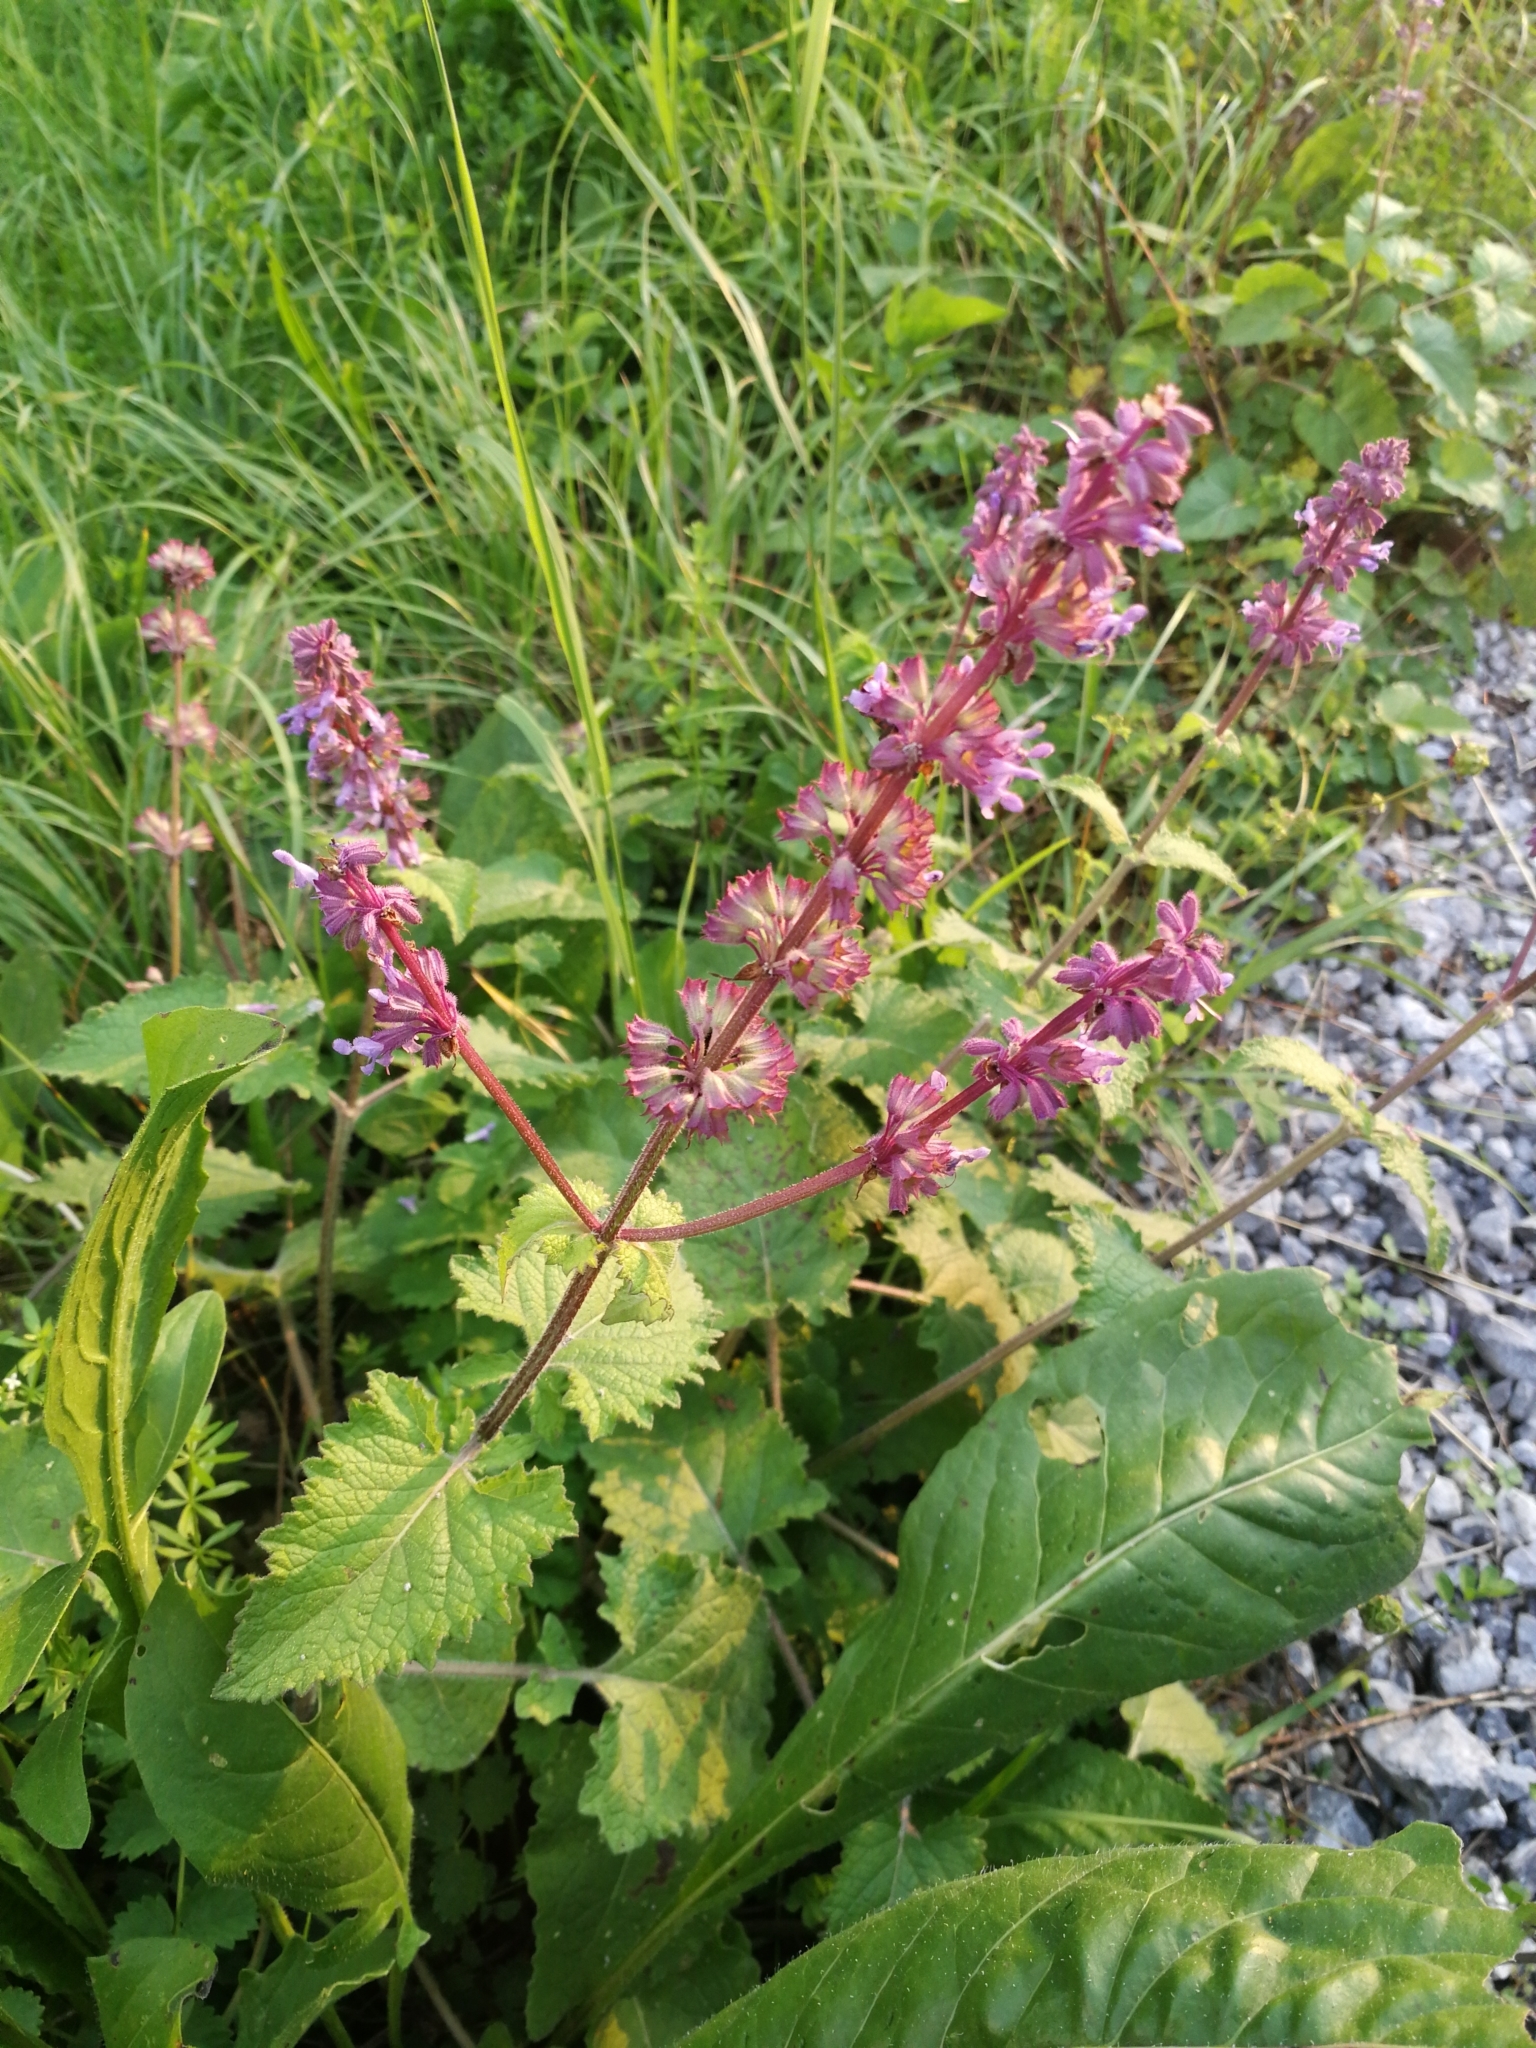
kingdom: Plantae
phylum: Tracheophyta
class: Magnoliopsida
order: Lamiales
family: Lamiaceae
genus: Salvia
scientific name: Salvia verticillata
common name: Whorled clary
